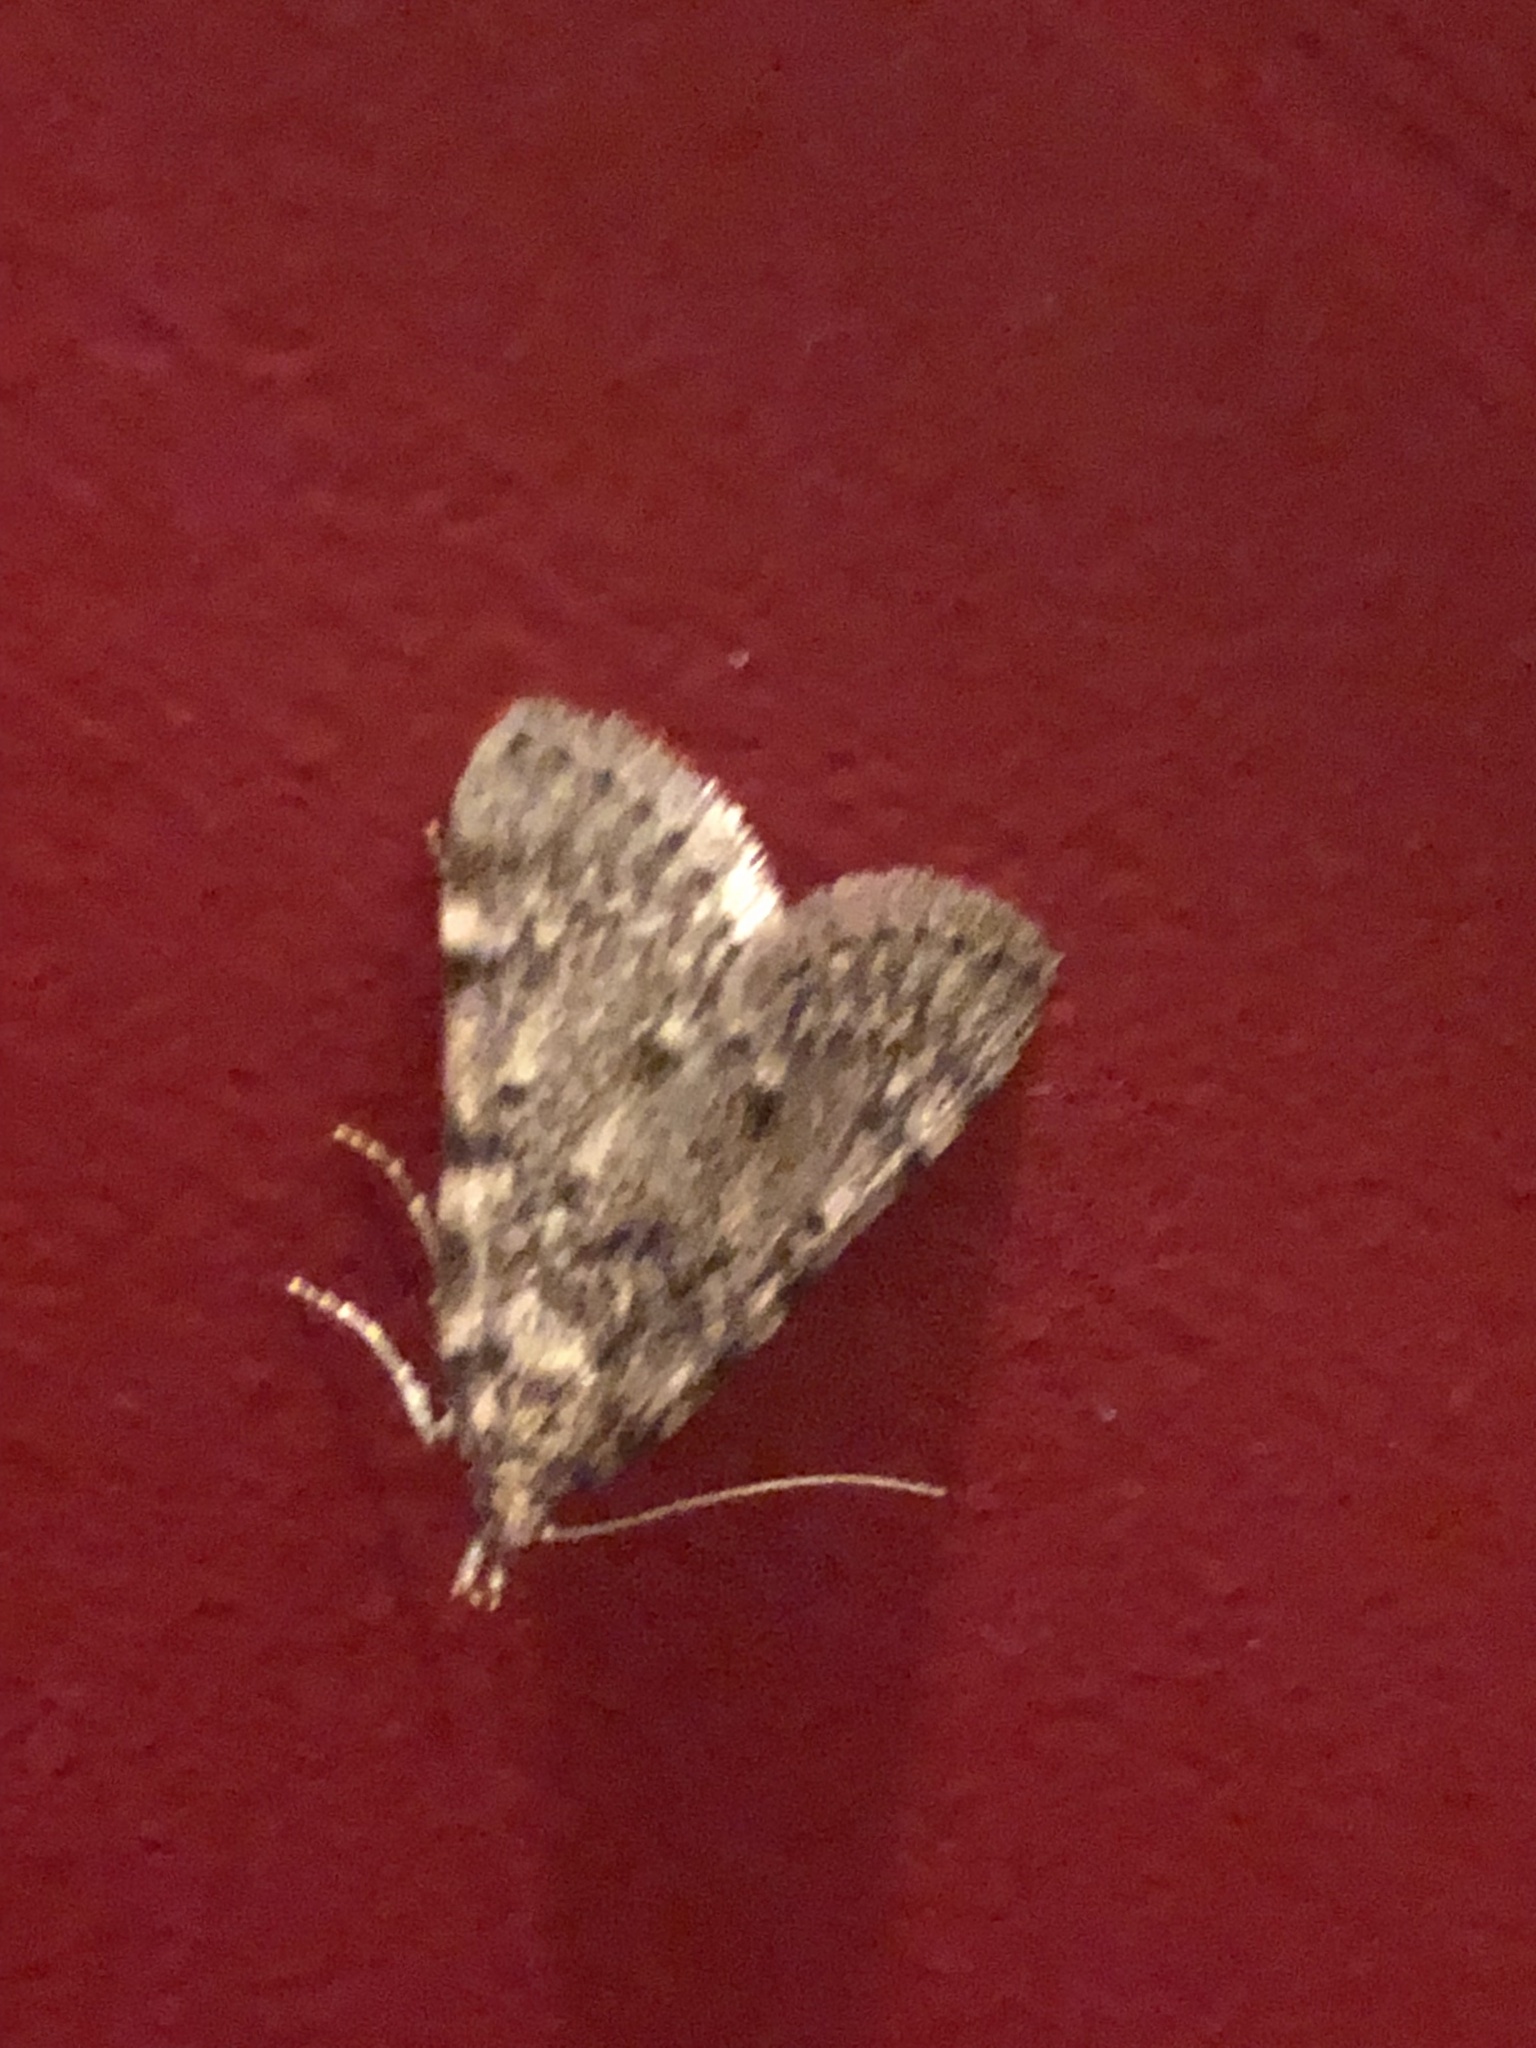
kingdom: Animalia
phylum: Arthropoda
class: Insecta
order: Lepidoptera
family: Pyralidae
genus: Aglossa
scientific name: Aglossa pinguinalis
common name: Large tabby
